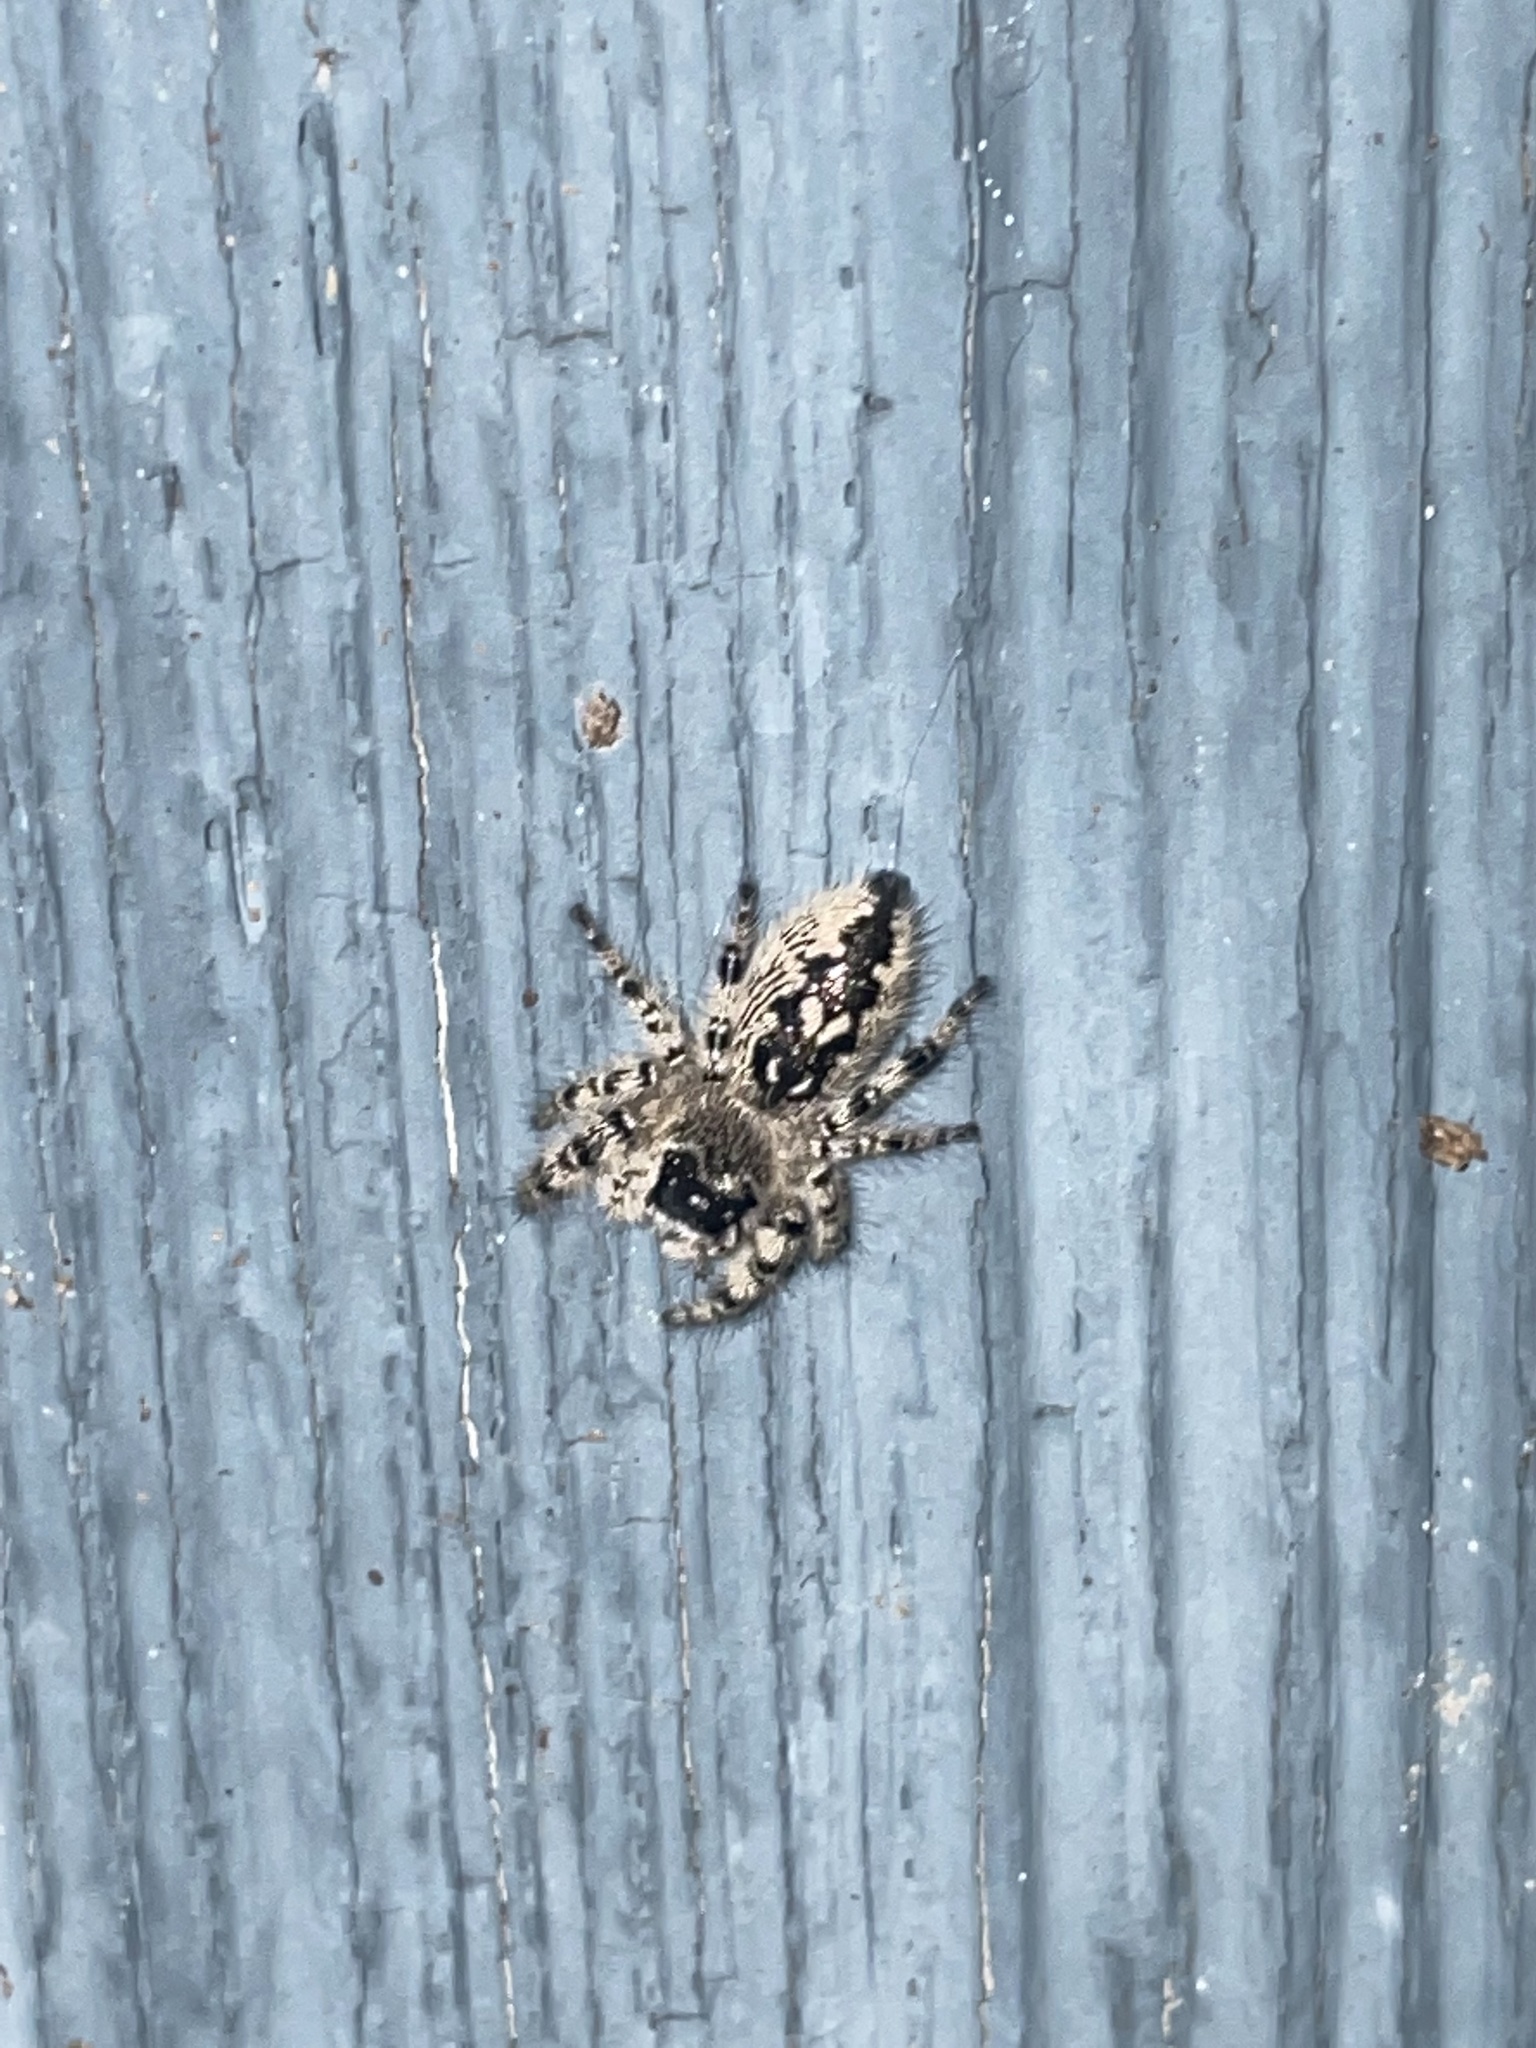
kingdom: Animalia
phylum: Arthropoda
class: Arachnida
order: Araneae
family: Salticidae
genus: Phidippus
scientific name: Phidippus otiosus
